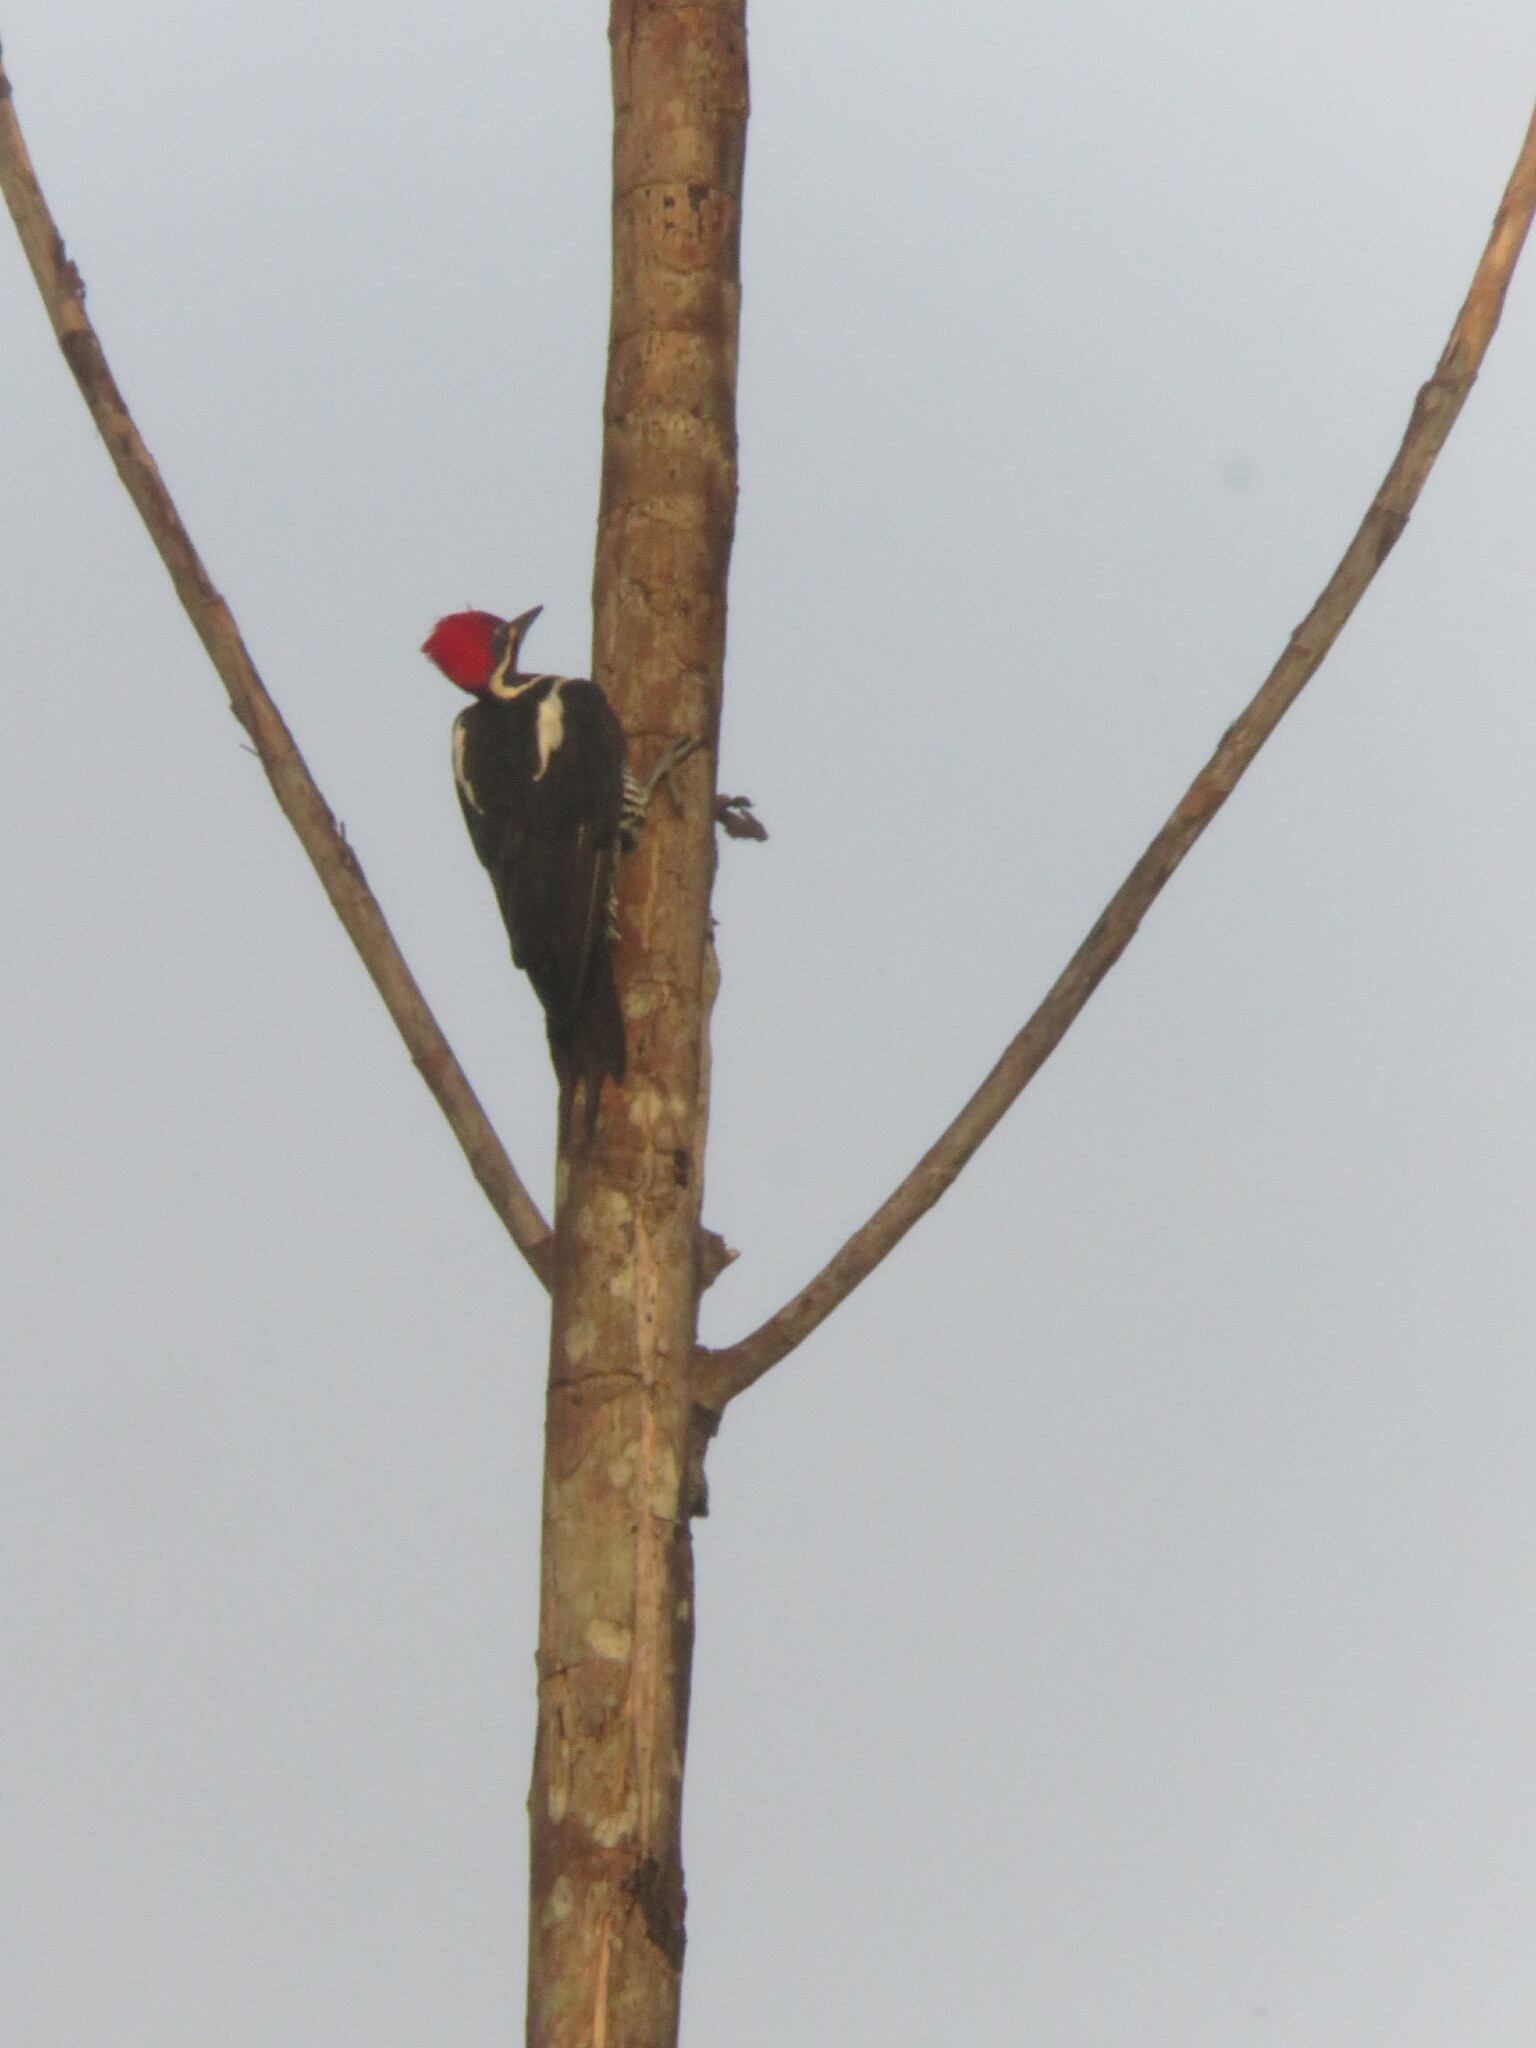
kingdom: Animalia
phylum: Chordata
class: Aves
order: Piciformes
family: Picidae
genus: Dryocopus
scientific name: Dryocopus lineatus
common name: Lineated woodpecker
